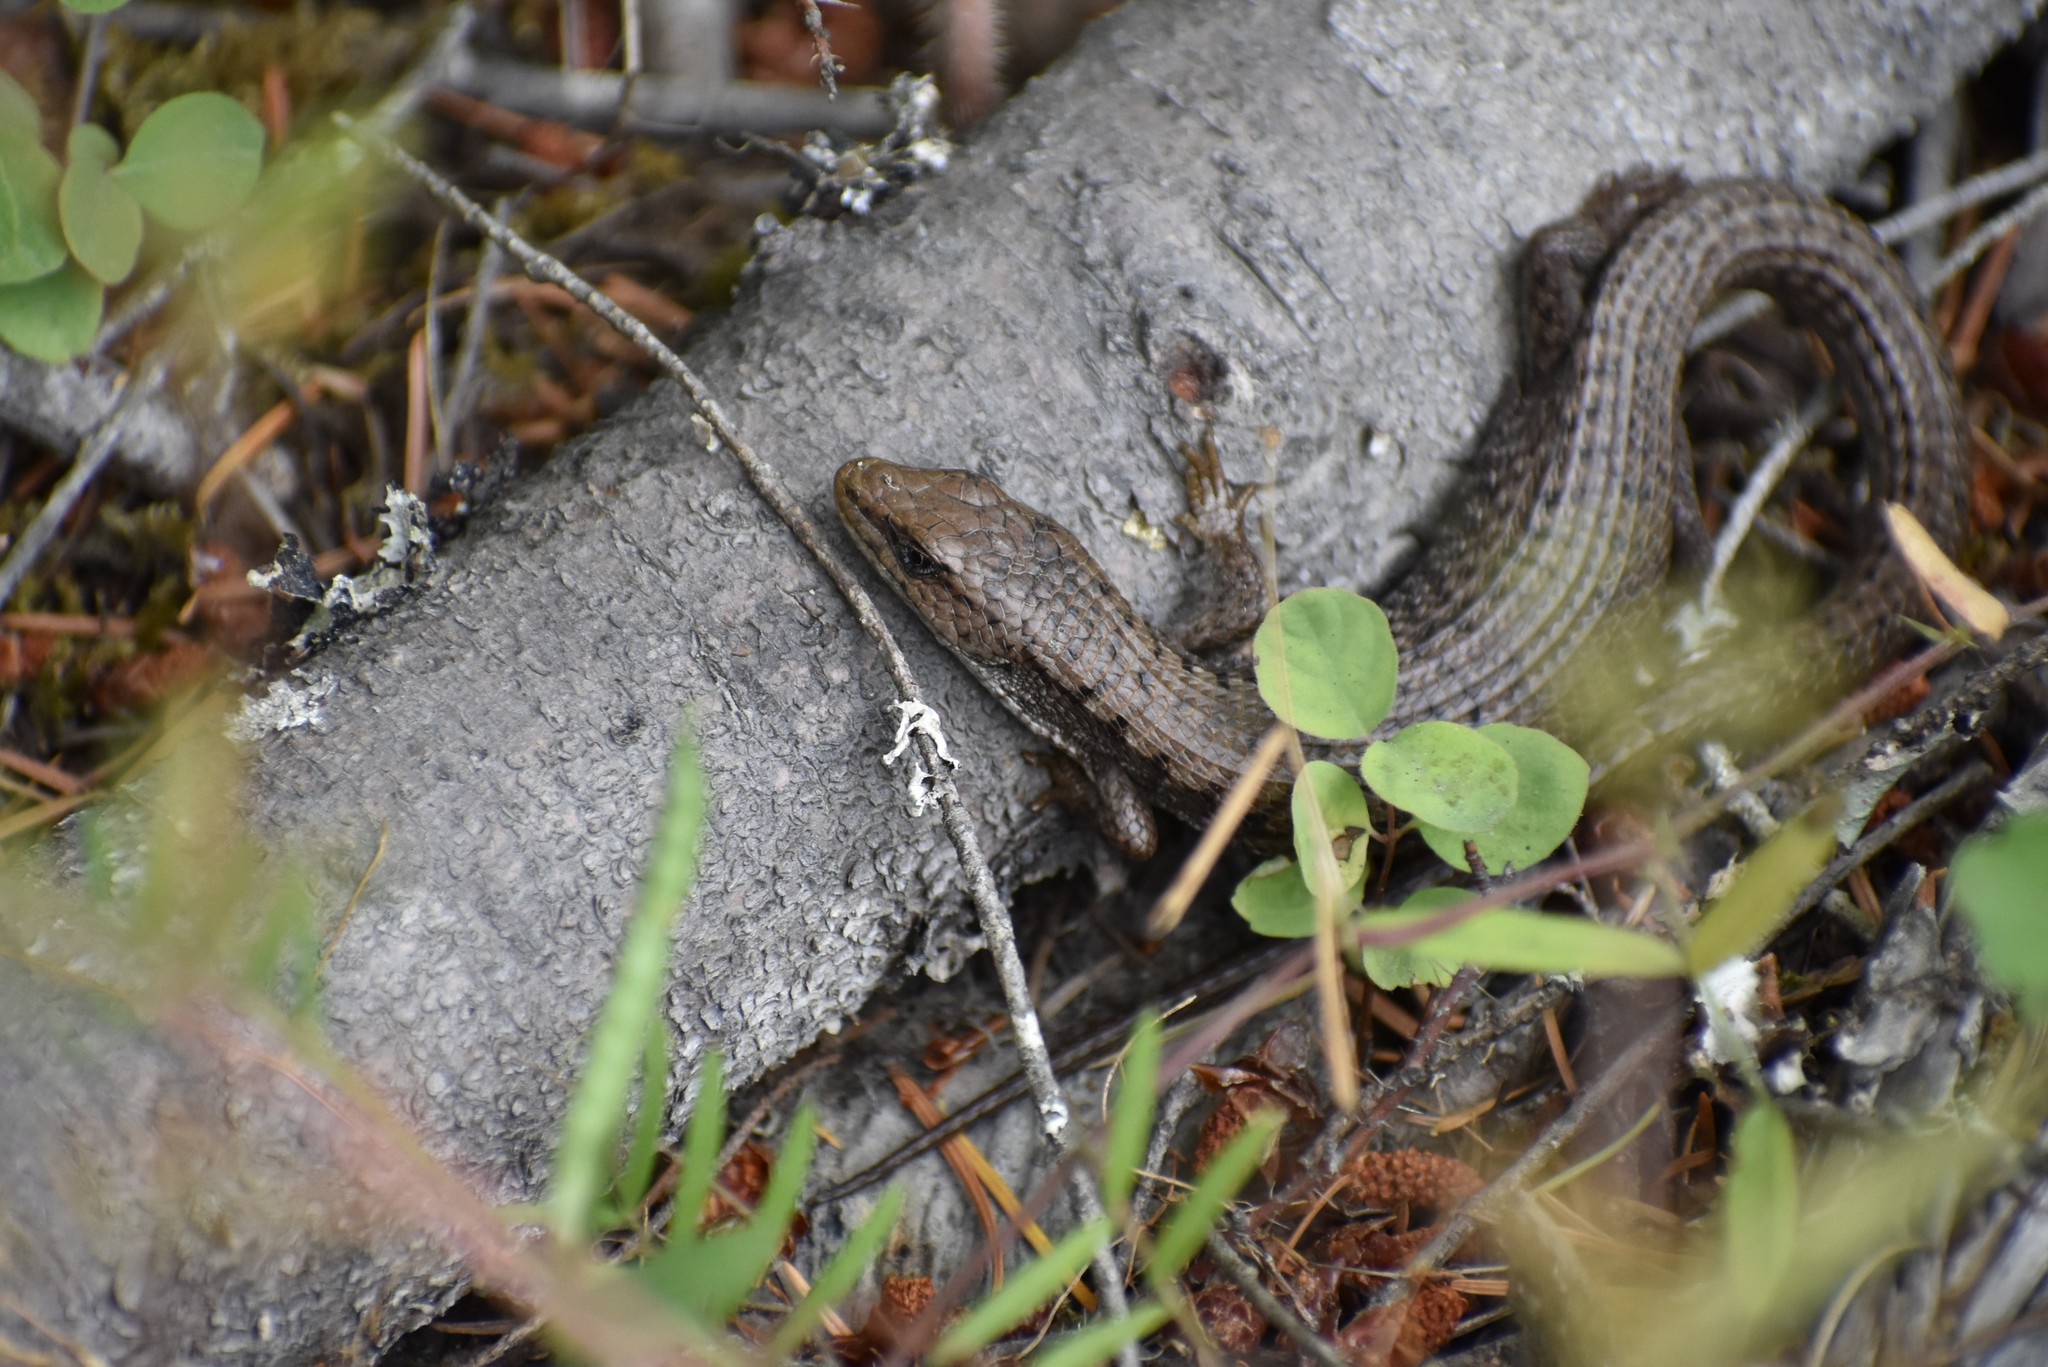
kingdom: Animalia
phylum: Chordata
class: Squamata
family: Anguidae
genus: Elgaria
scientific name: Elgaria coerulea
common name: Northern alligator lizard
